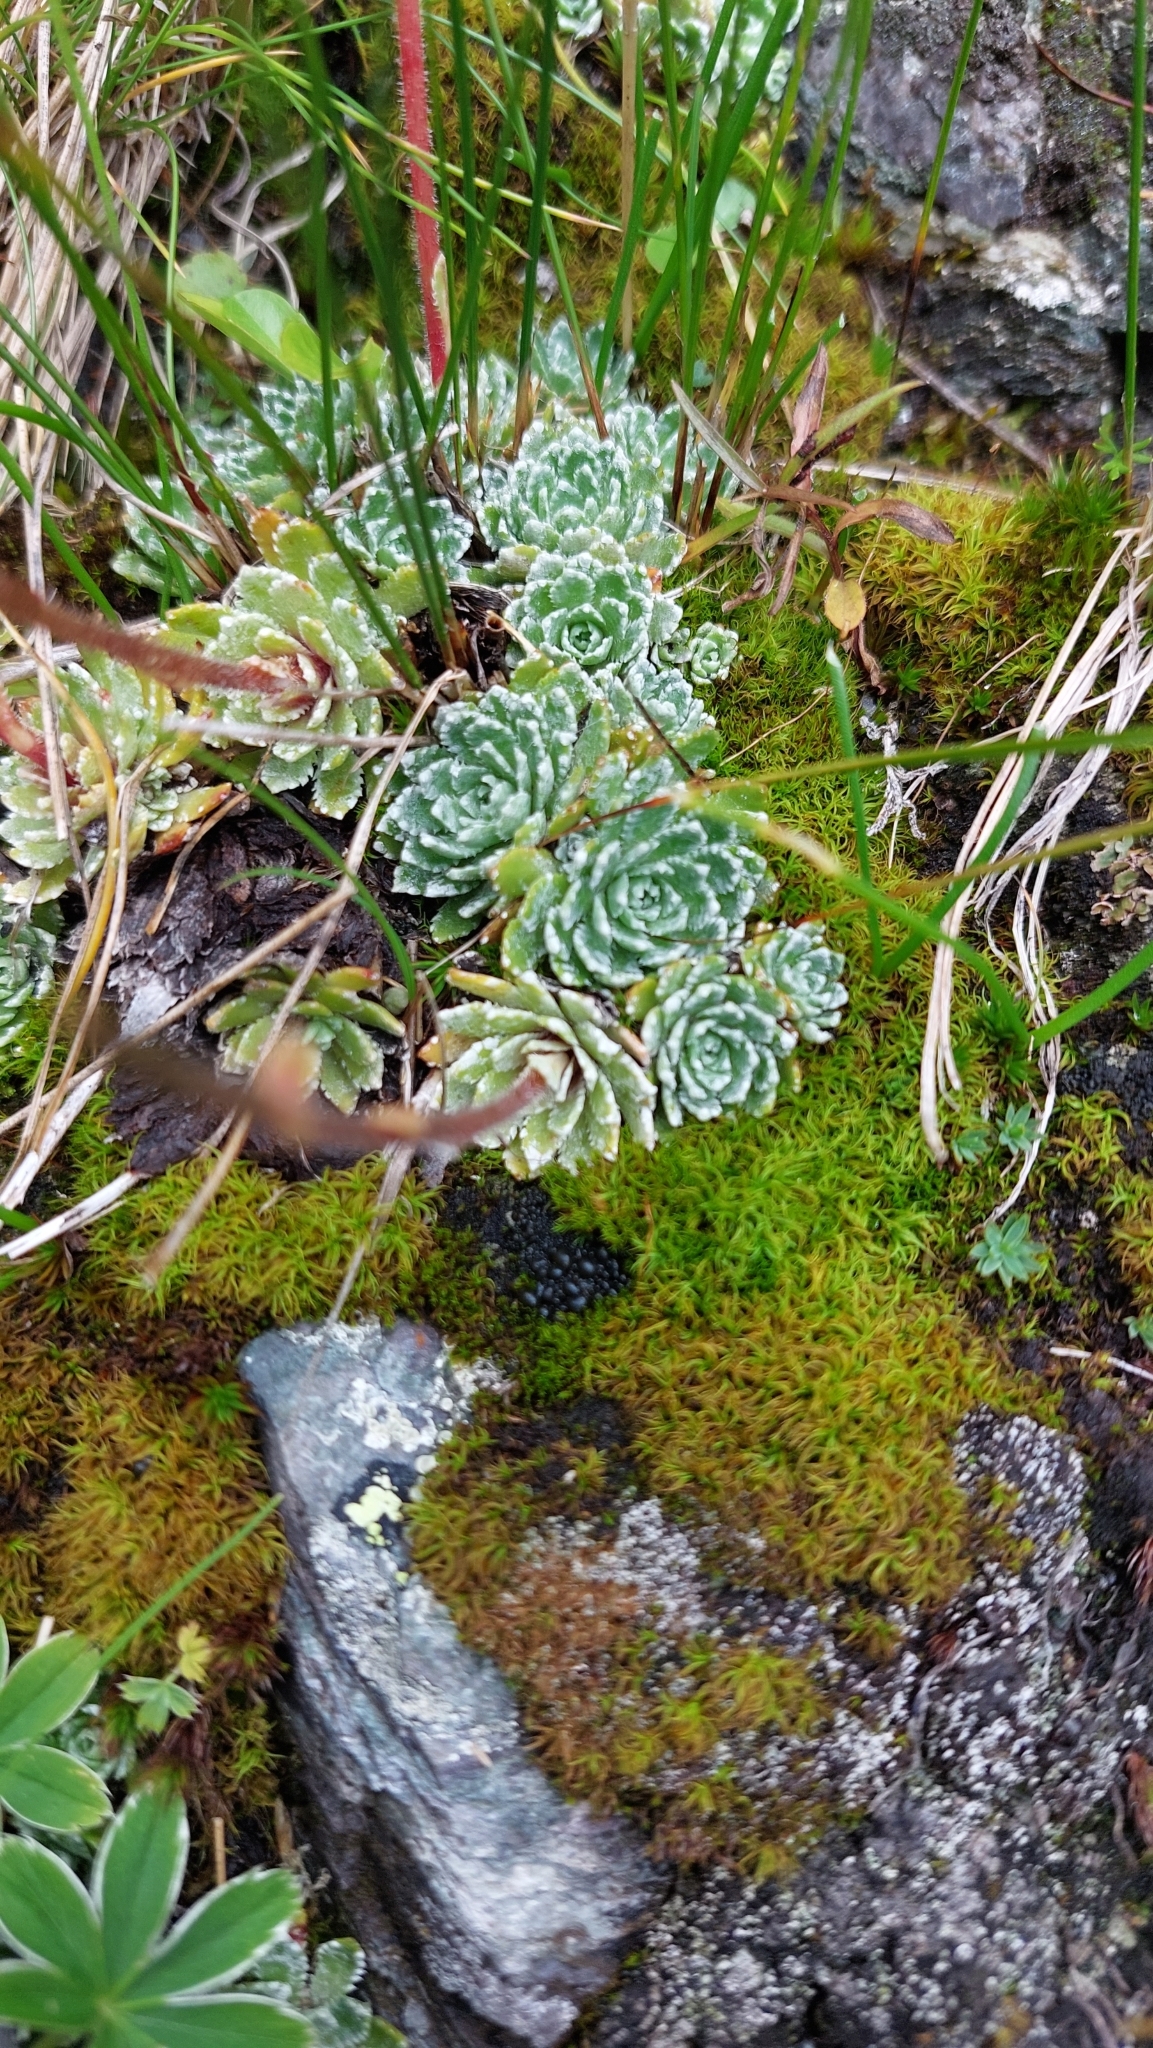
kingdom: Plantae
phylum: Tracheophyta
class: Magnoliopsida
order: Saxifragales
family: Saxifragaceae
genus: Saxifraga
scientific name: Saxifraga paniculata
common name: Livelong saxifrage
